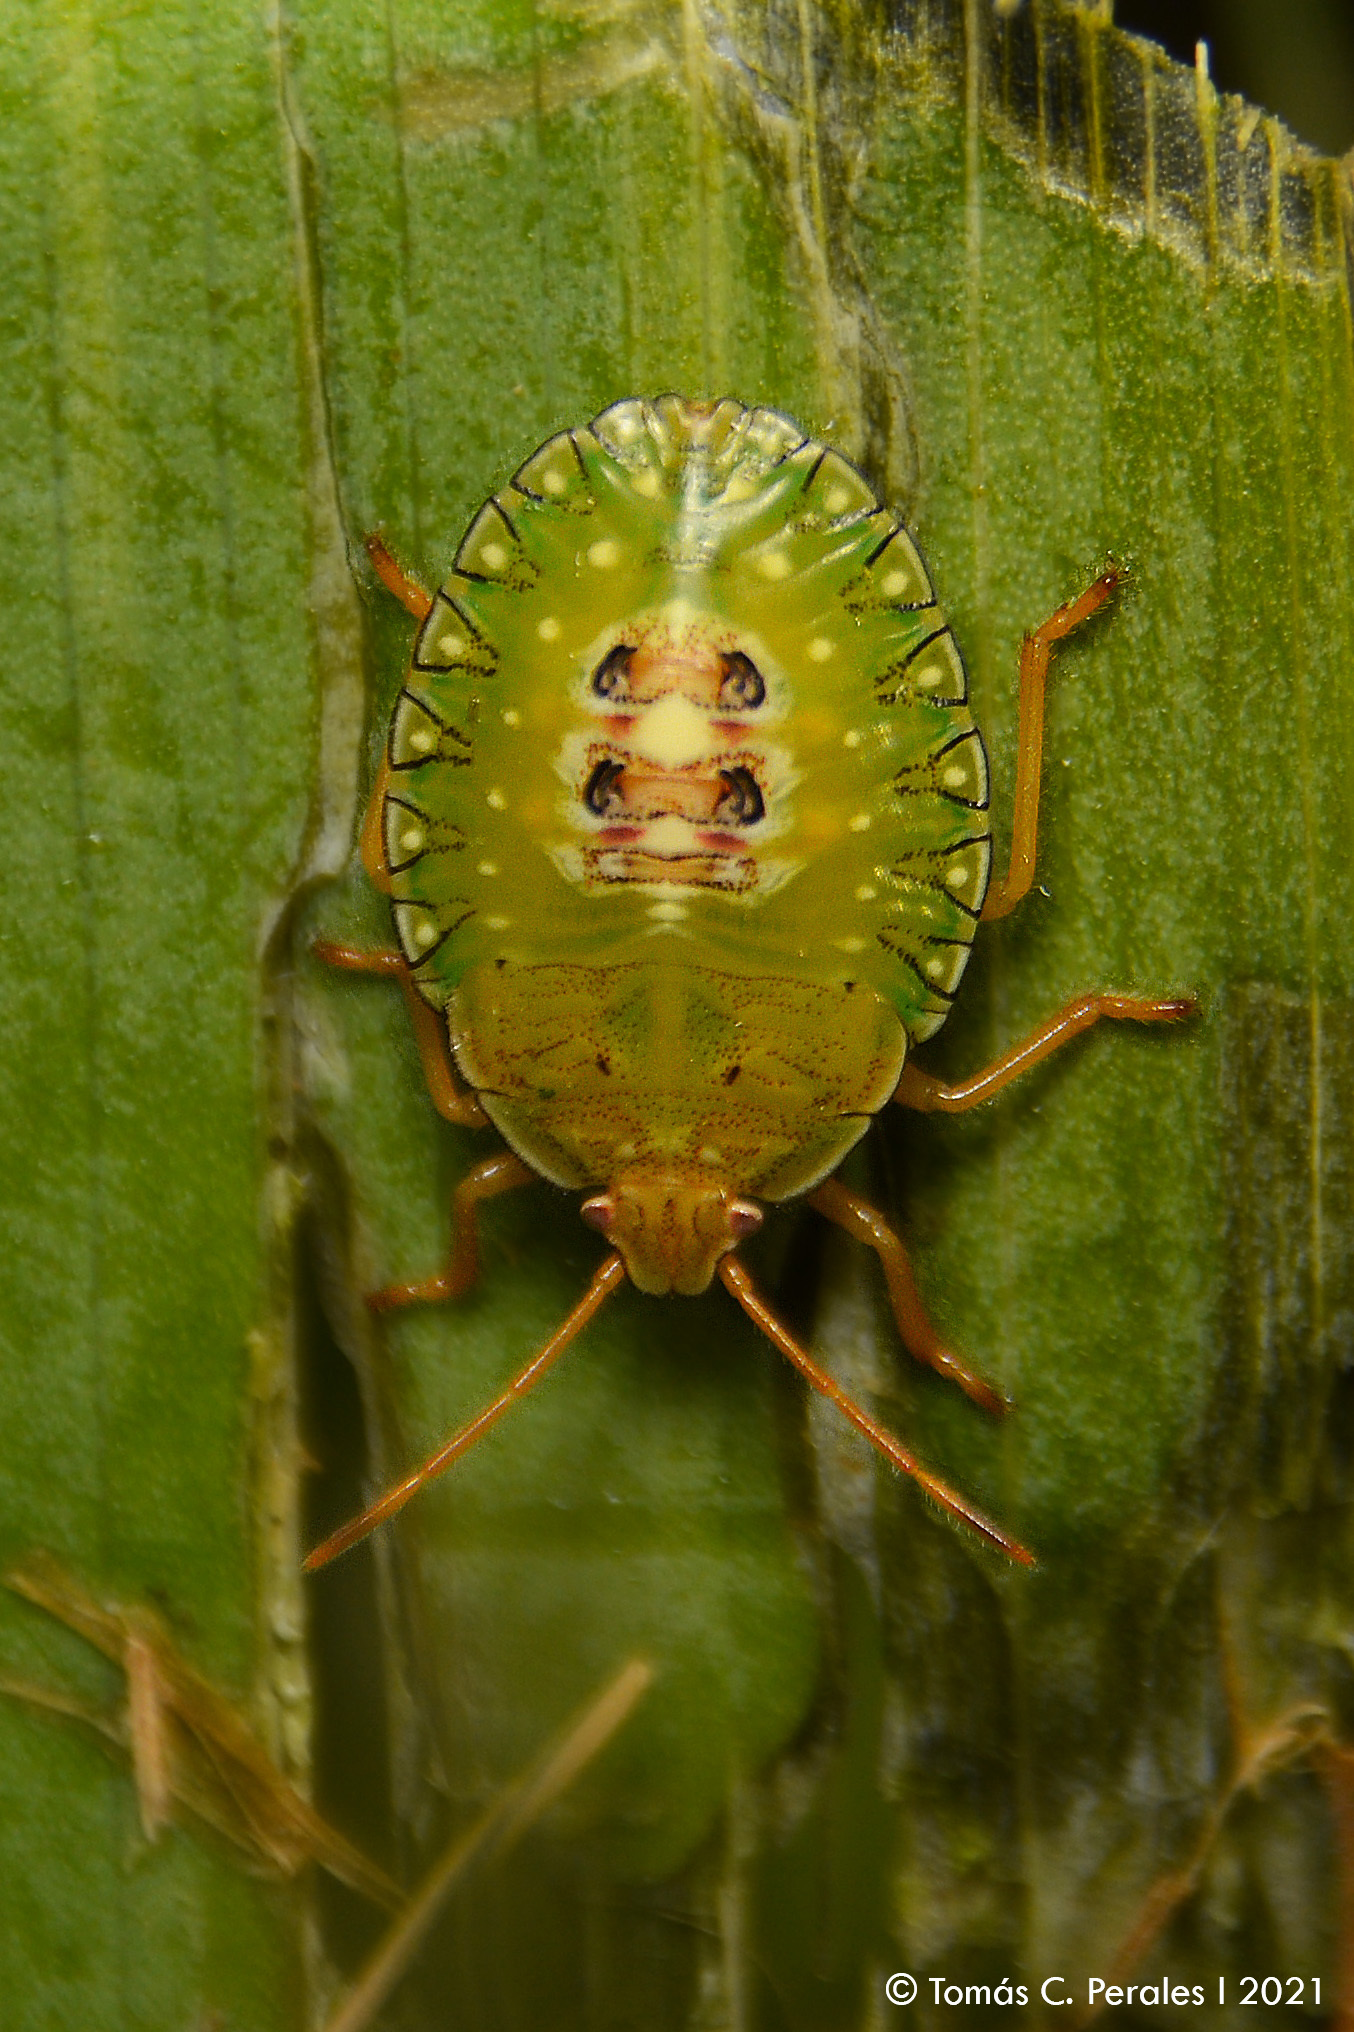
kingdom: Animalia
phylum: Arthropoda
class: Insecta
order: Hemiptera
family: Pentatomidae
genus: Edessa
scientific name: Edessa meditabunda
